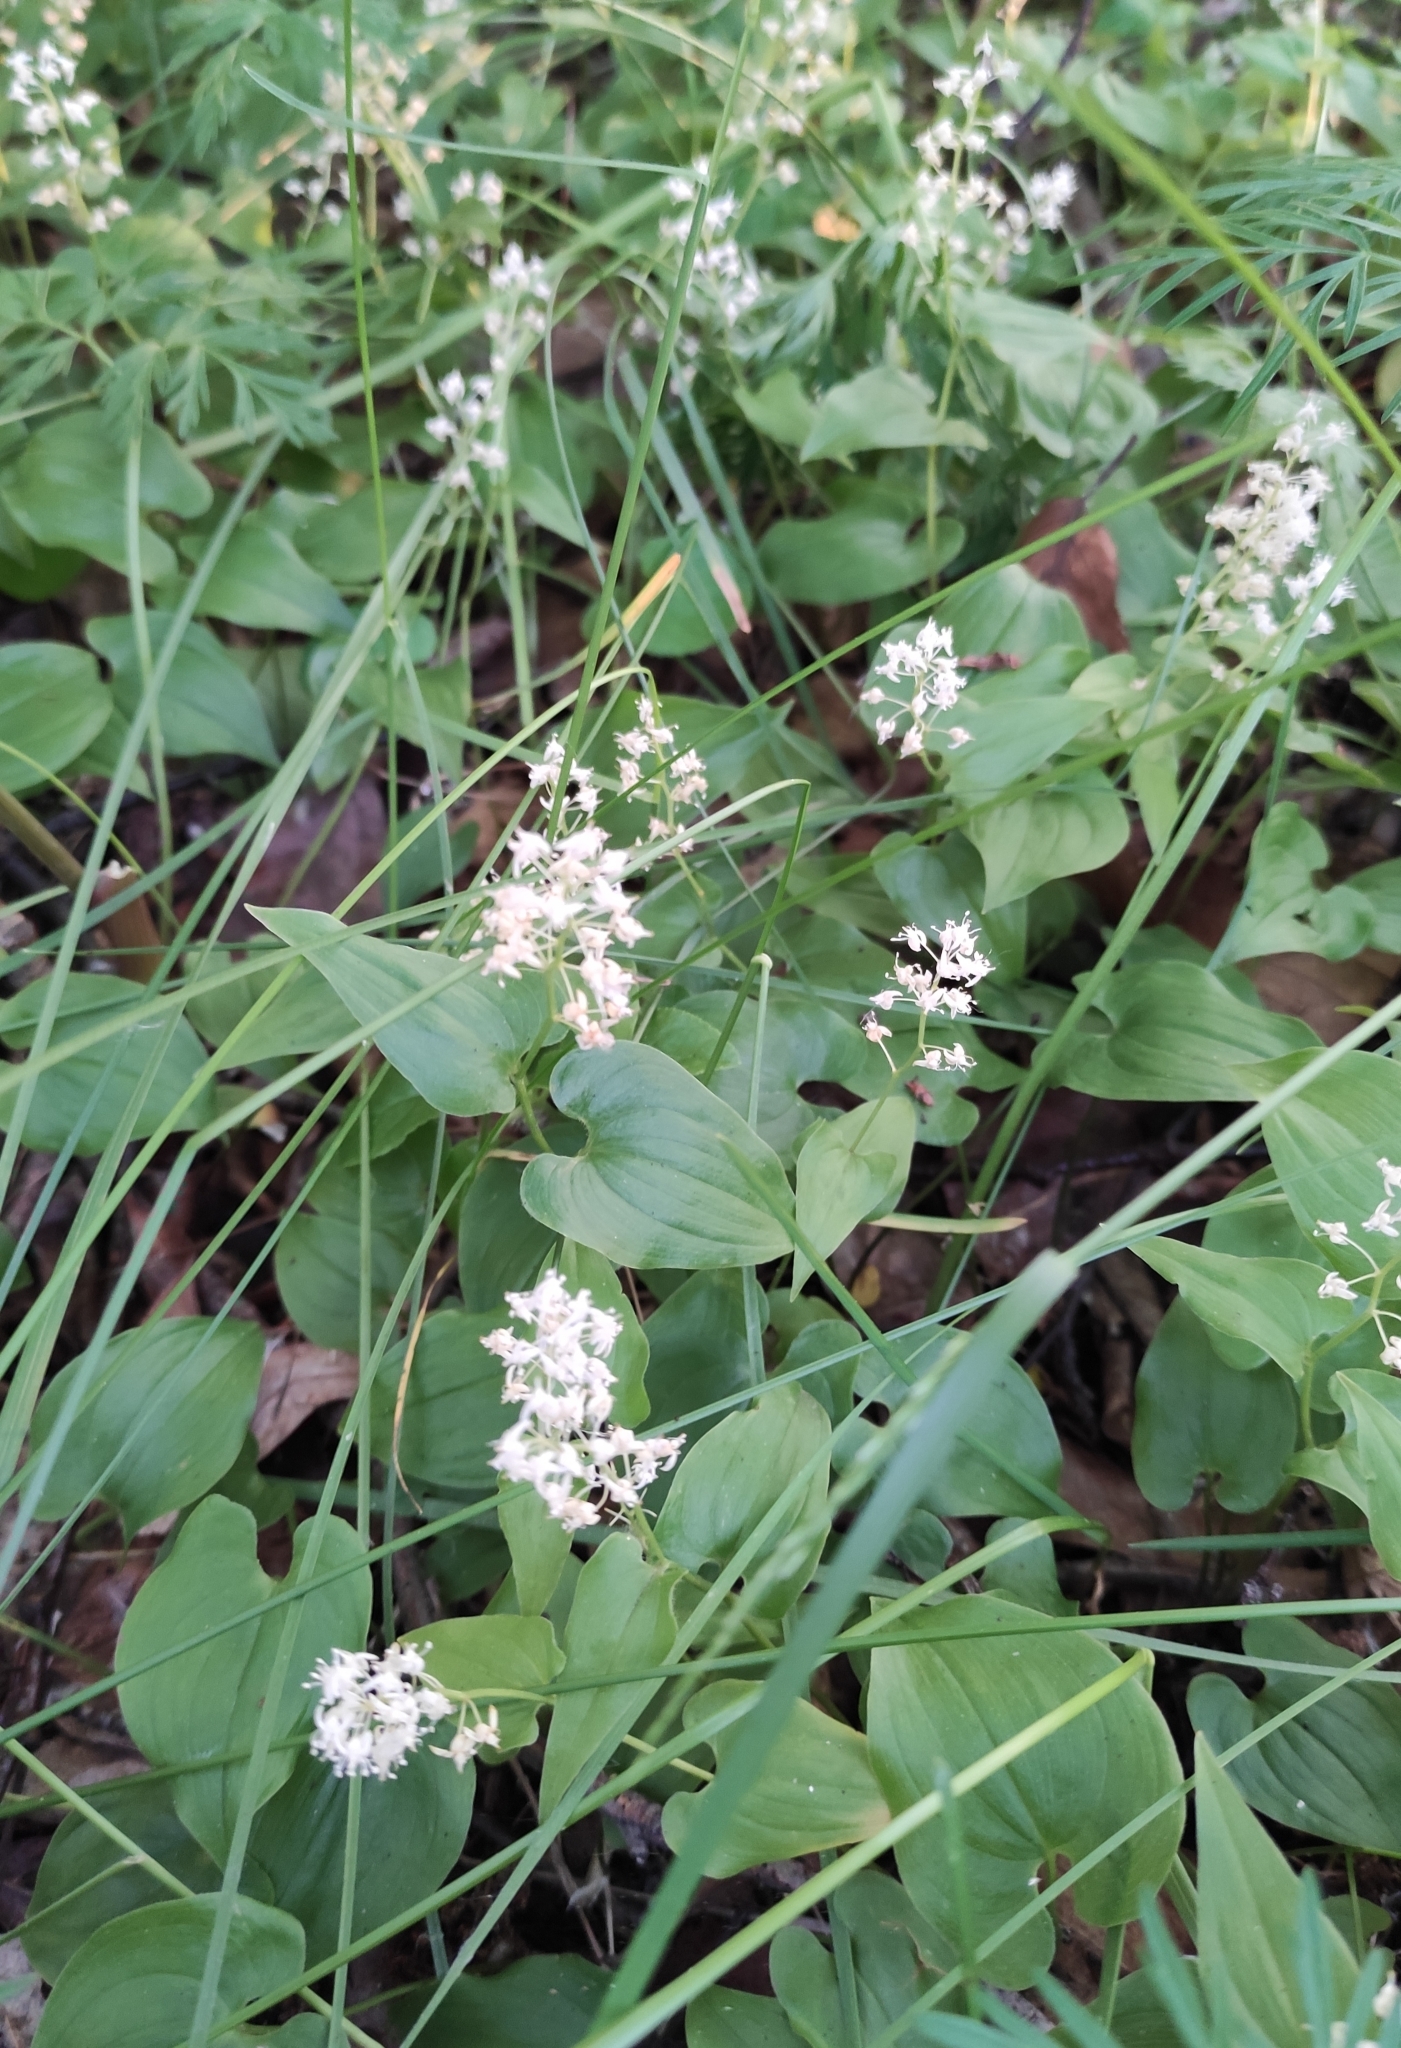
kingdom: Plantae
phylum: Tracheophyta
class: Liliopsida
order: Asparagales
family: Asparagaceae
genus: Maianthemum
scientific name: Maianthemum bifolium
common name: May lily
